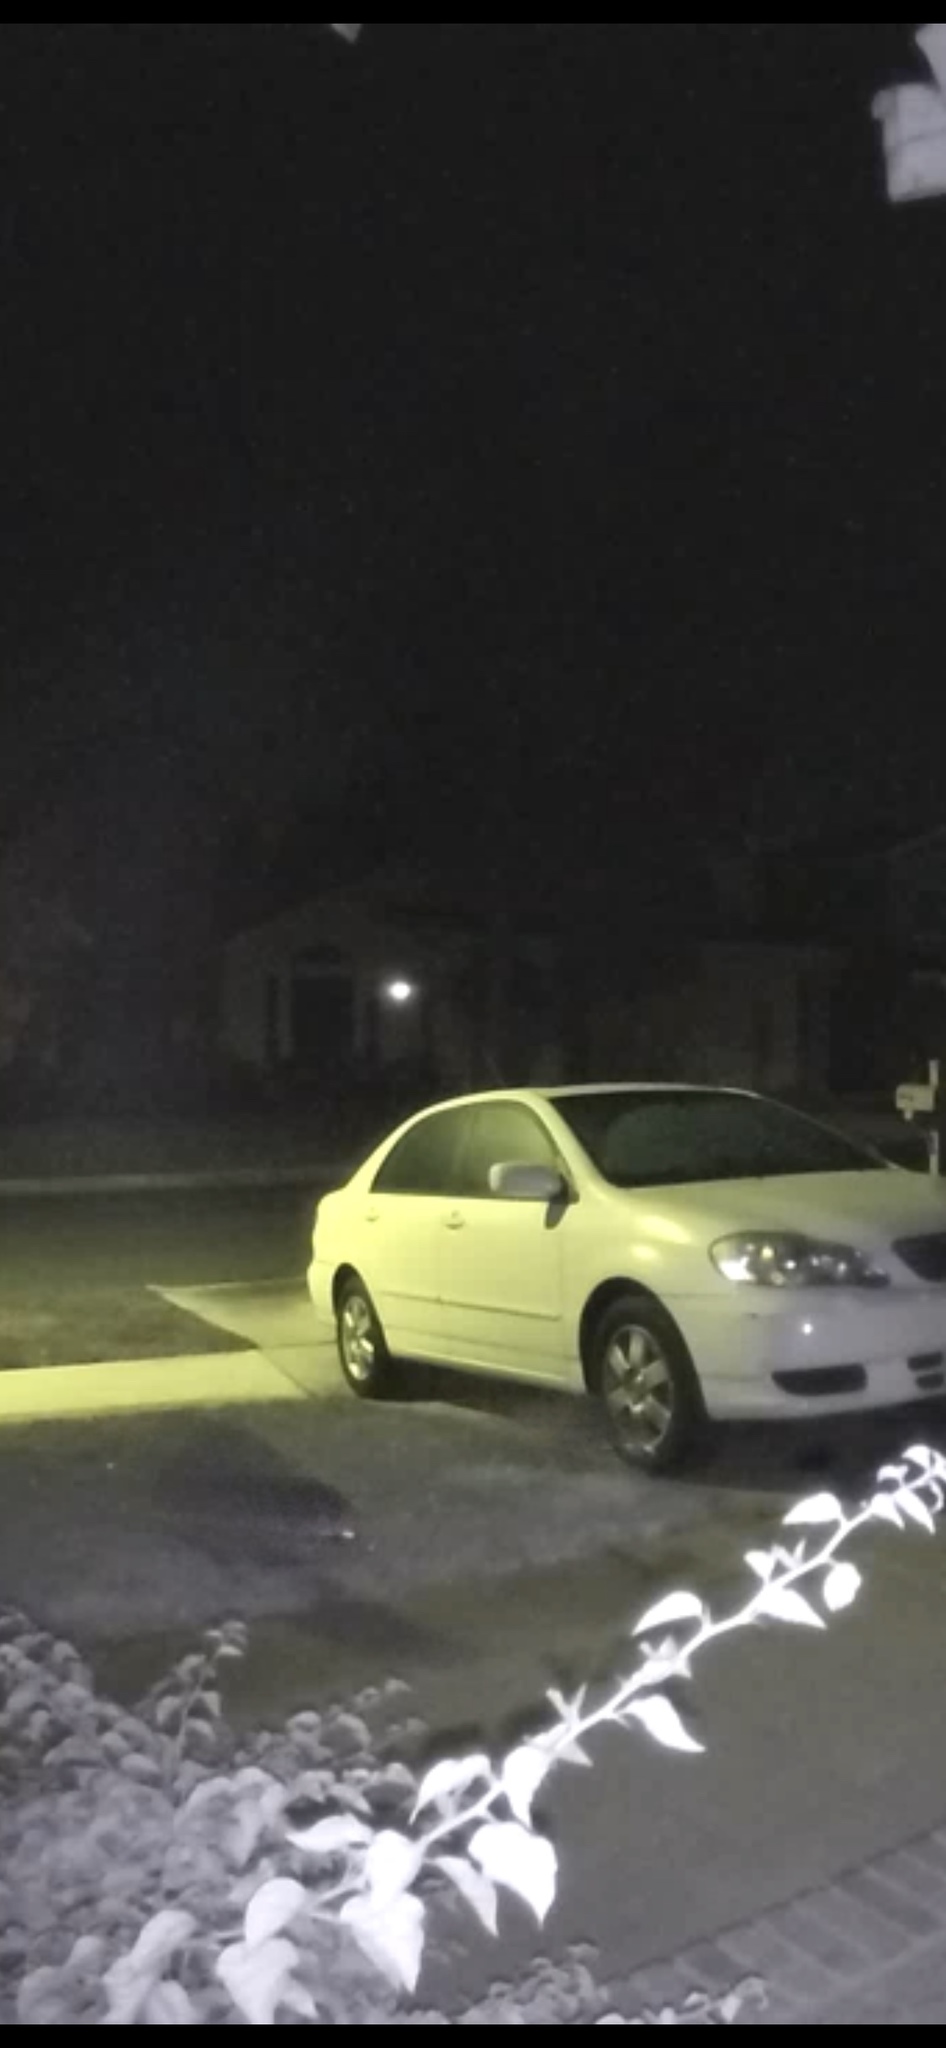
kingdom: Animalia
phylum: Chordata
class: Mammalia
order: Carnivora
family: Procyonidae
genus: Procyon
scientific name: Procyon lotor
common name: Raccoon
